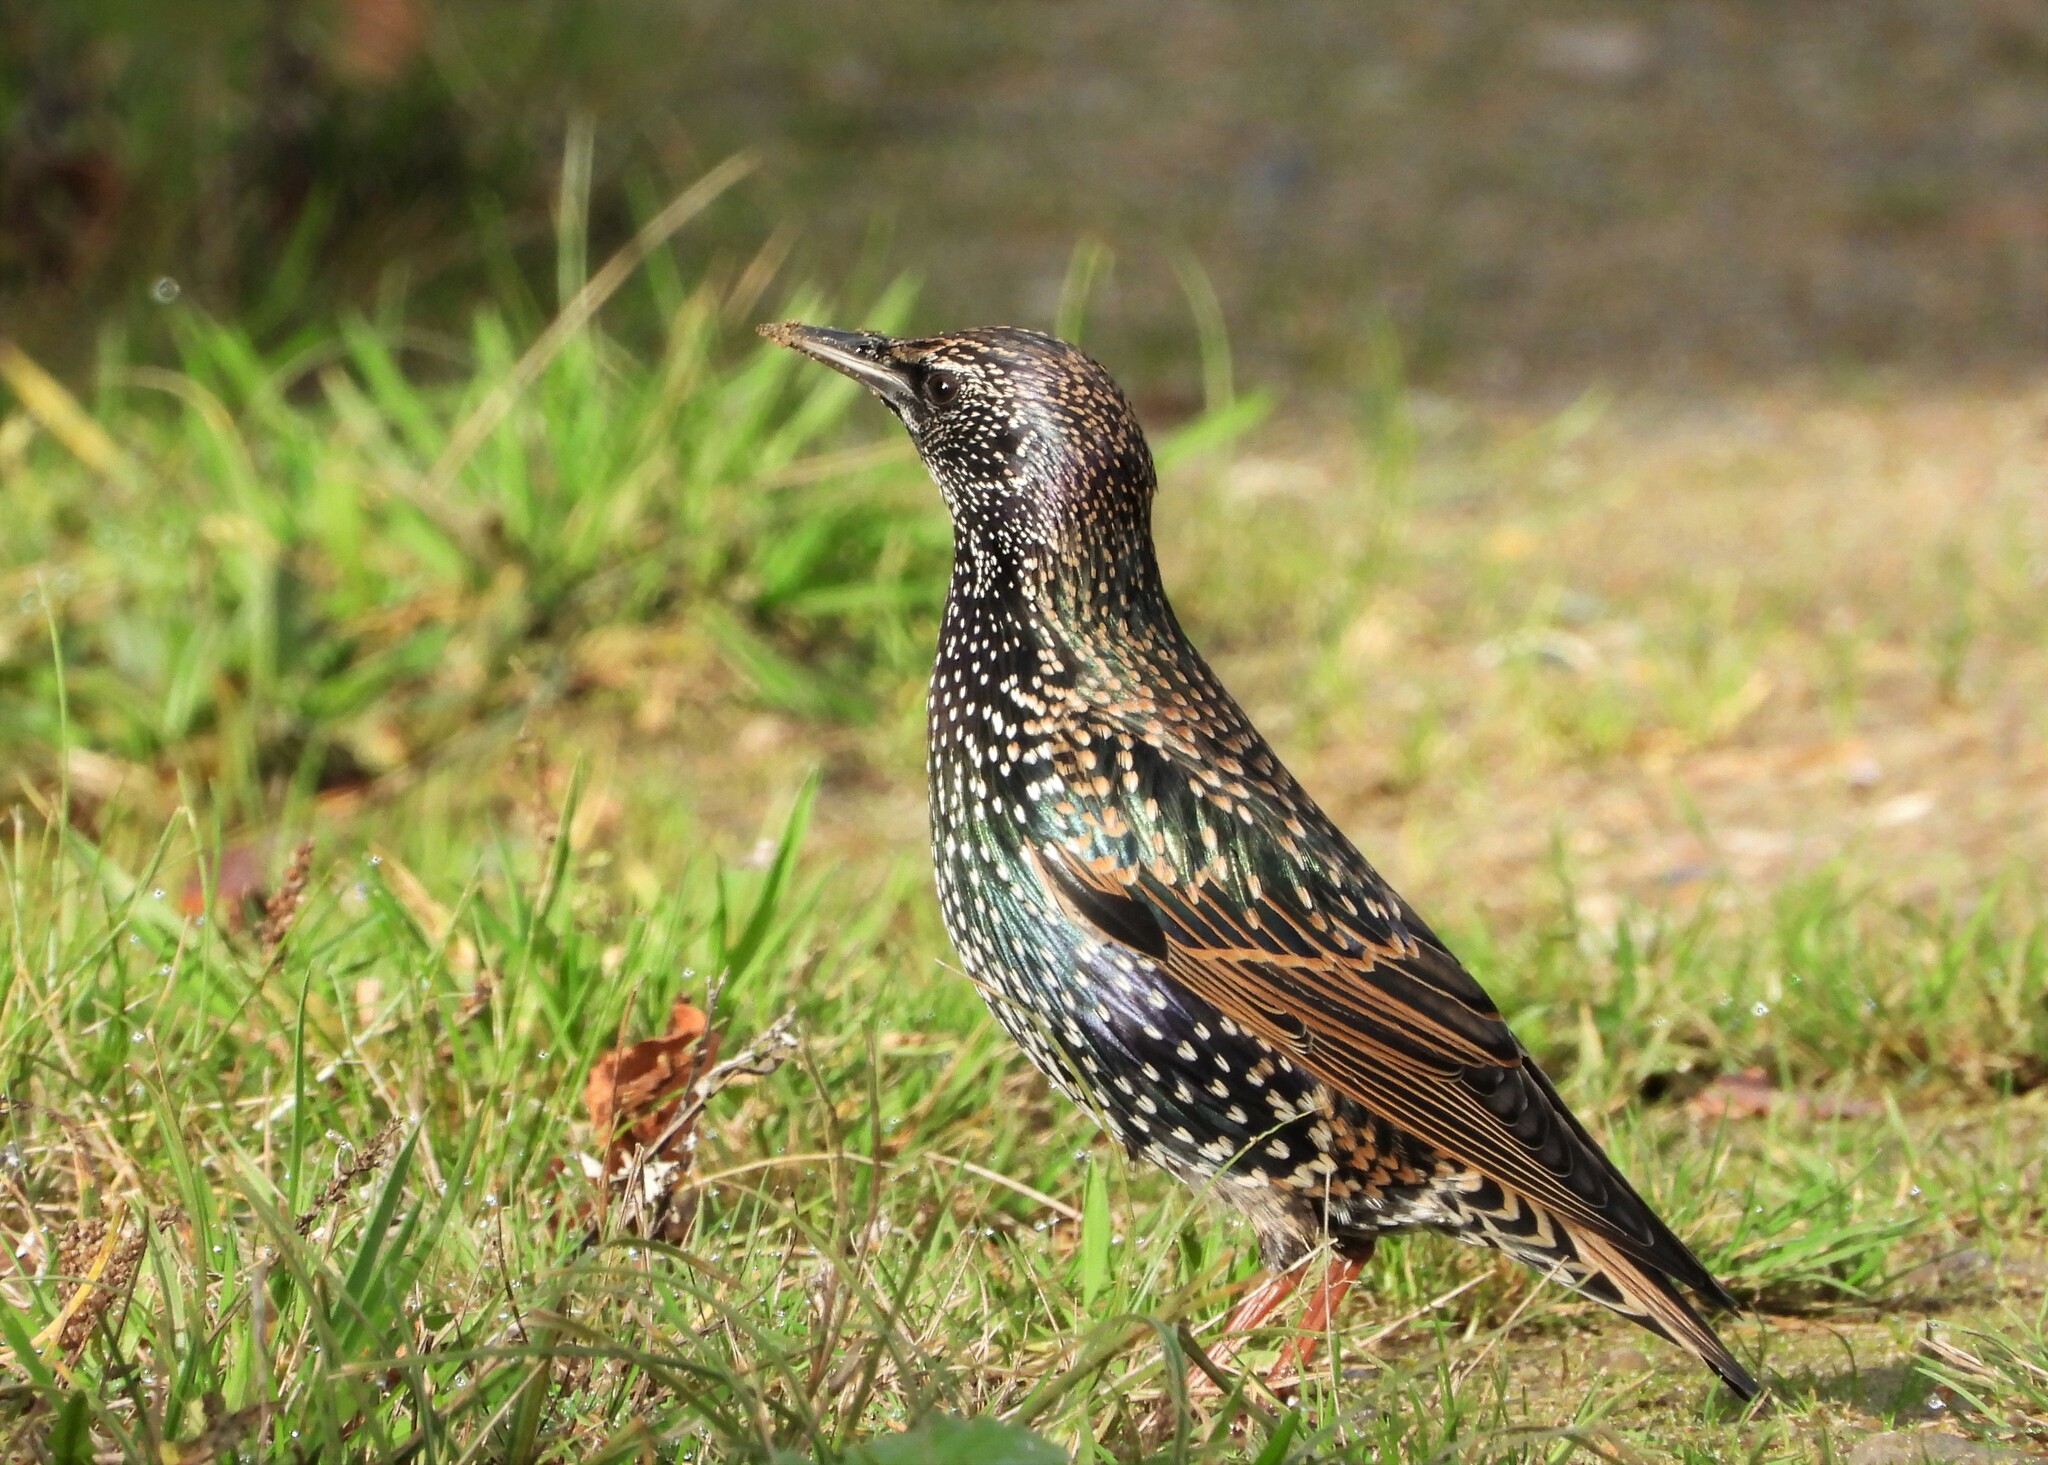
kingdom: Animalia
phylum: Chordata
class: Aves
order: Passeriformes
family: Sturnidae
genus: Sturnus
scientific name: Sturnus vulgaris
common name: Common starling
